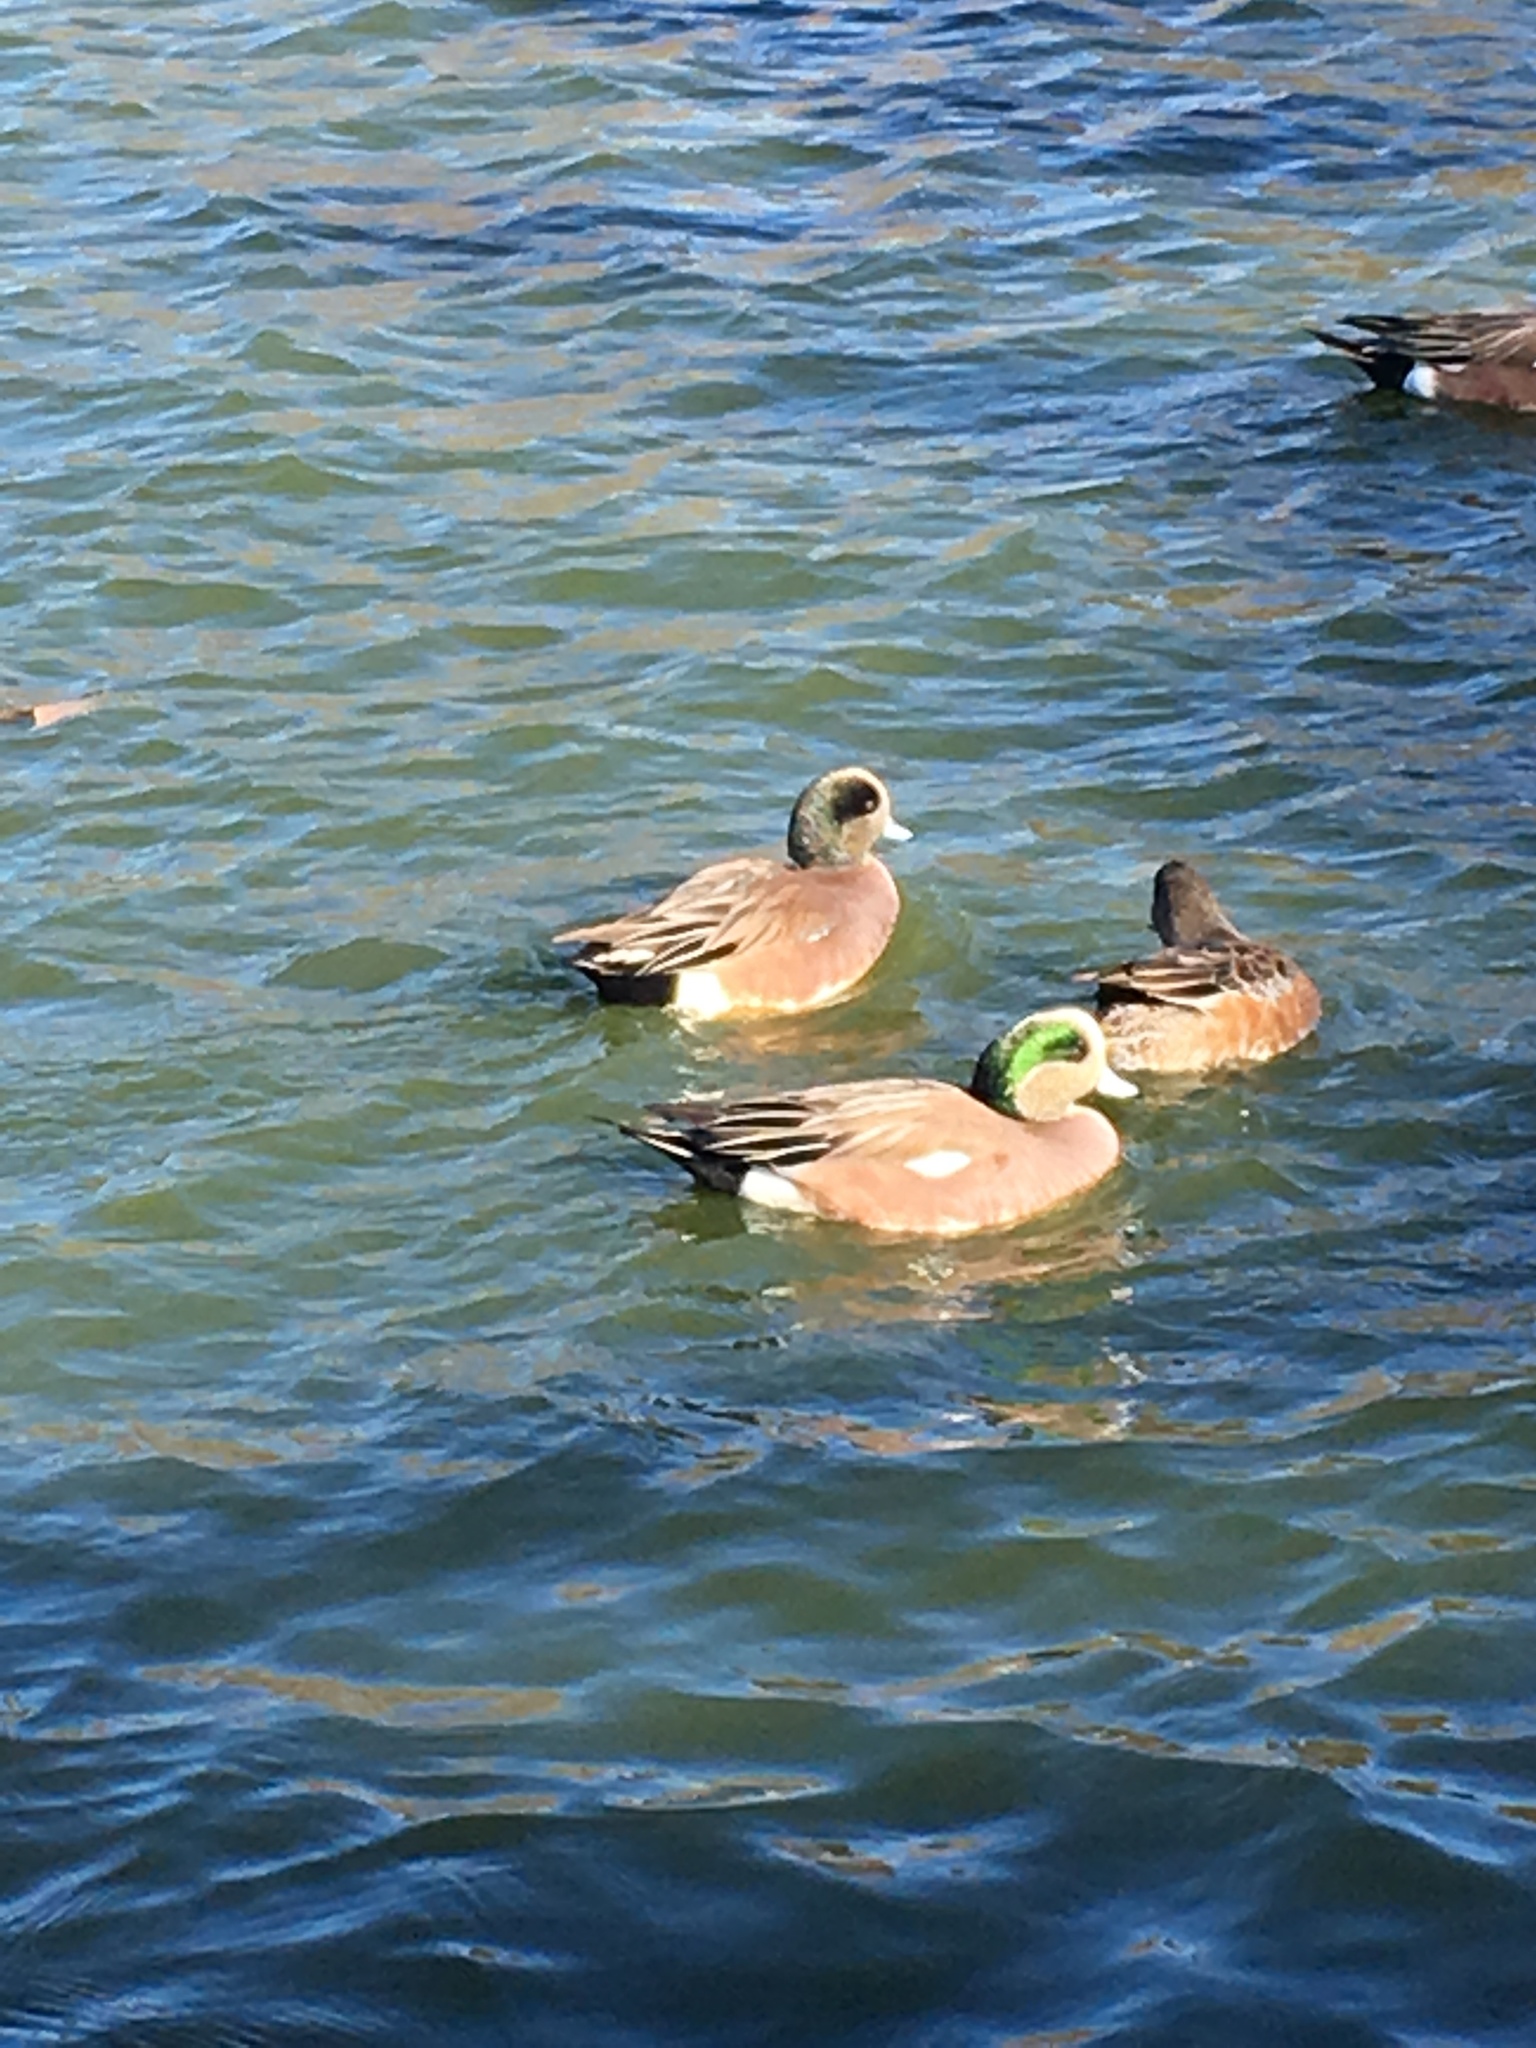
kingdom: Animalia
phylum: Chordata
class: Aves
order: Anseriformes
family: Anatidae
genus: Mareca
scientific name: Mareca americana
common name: American wigeon
